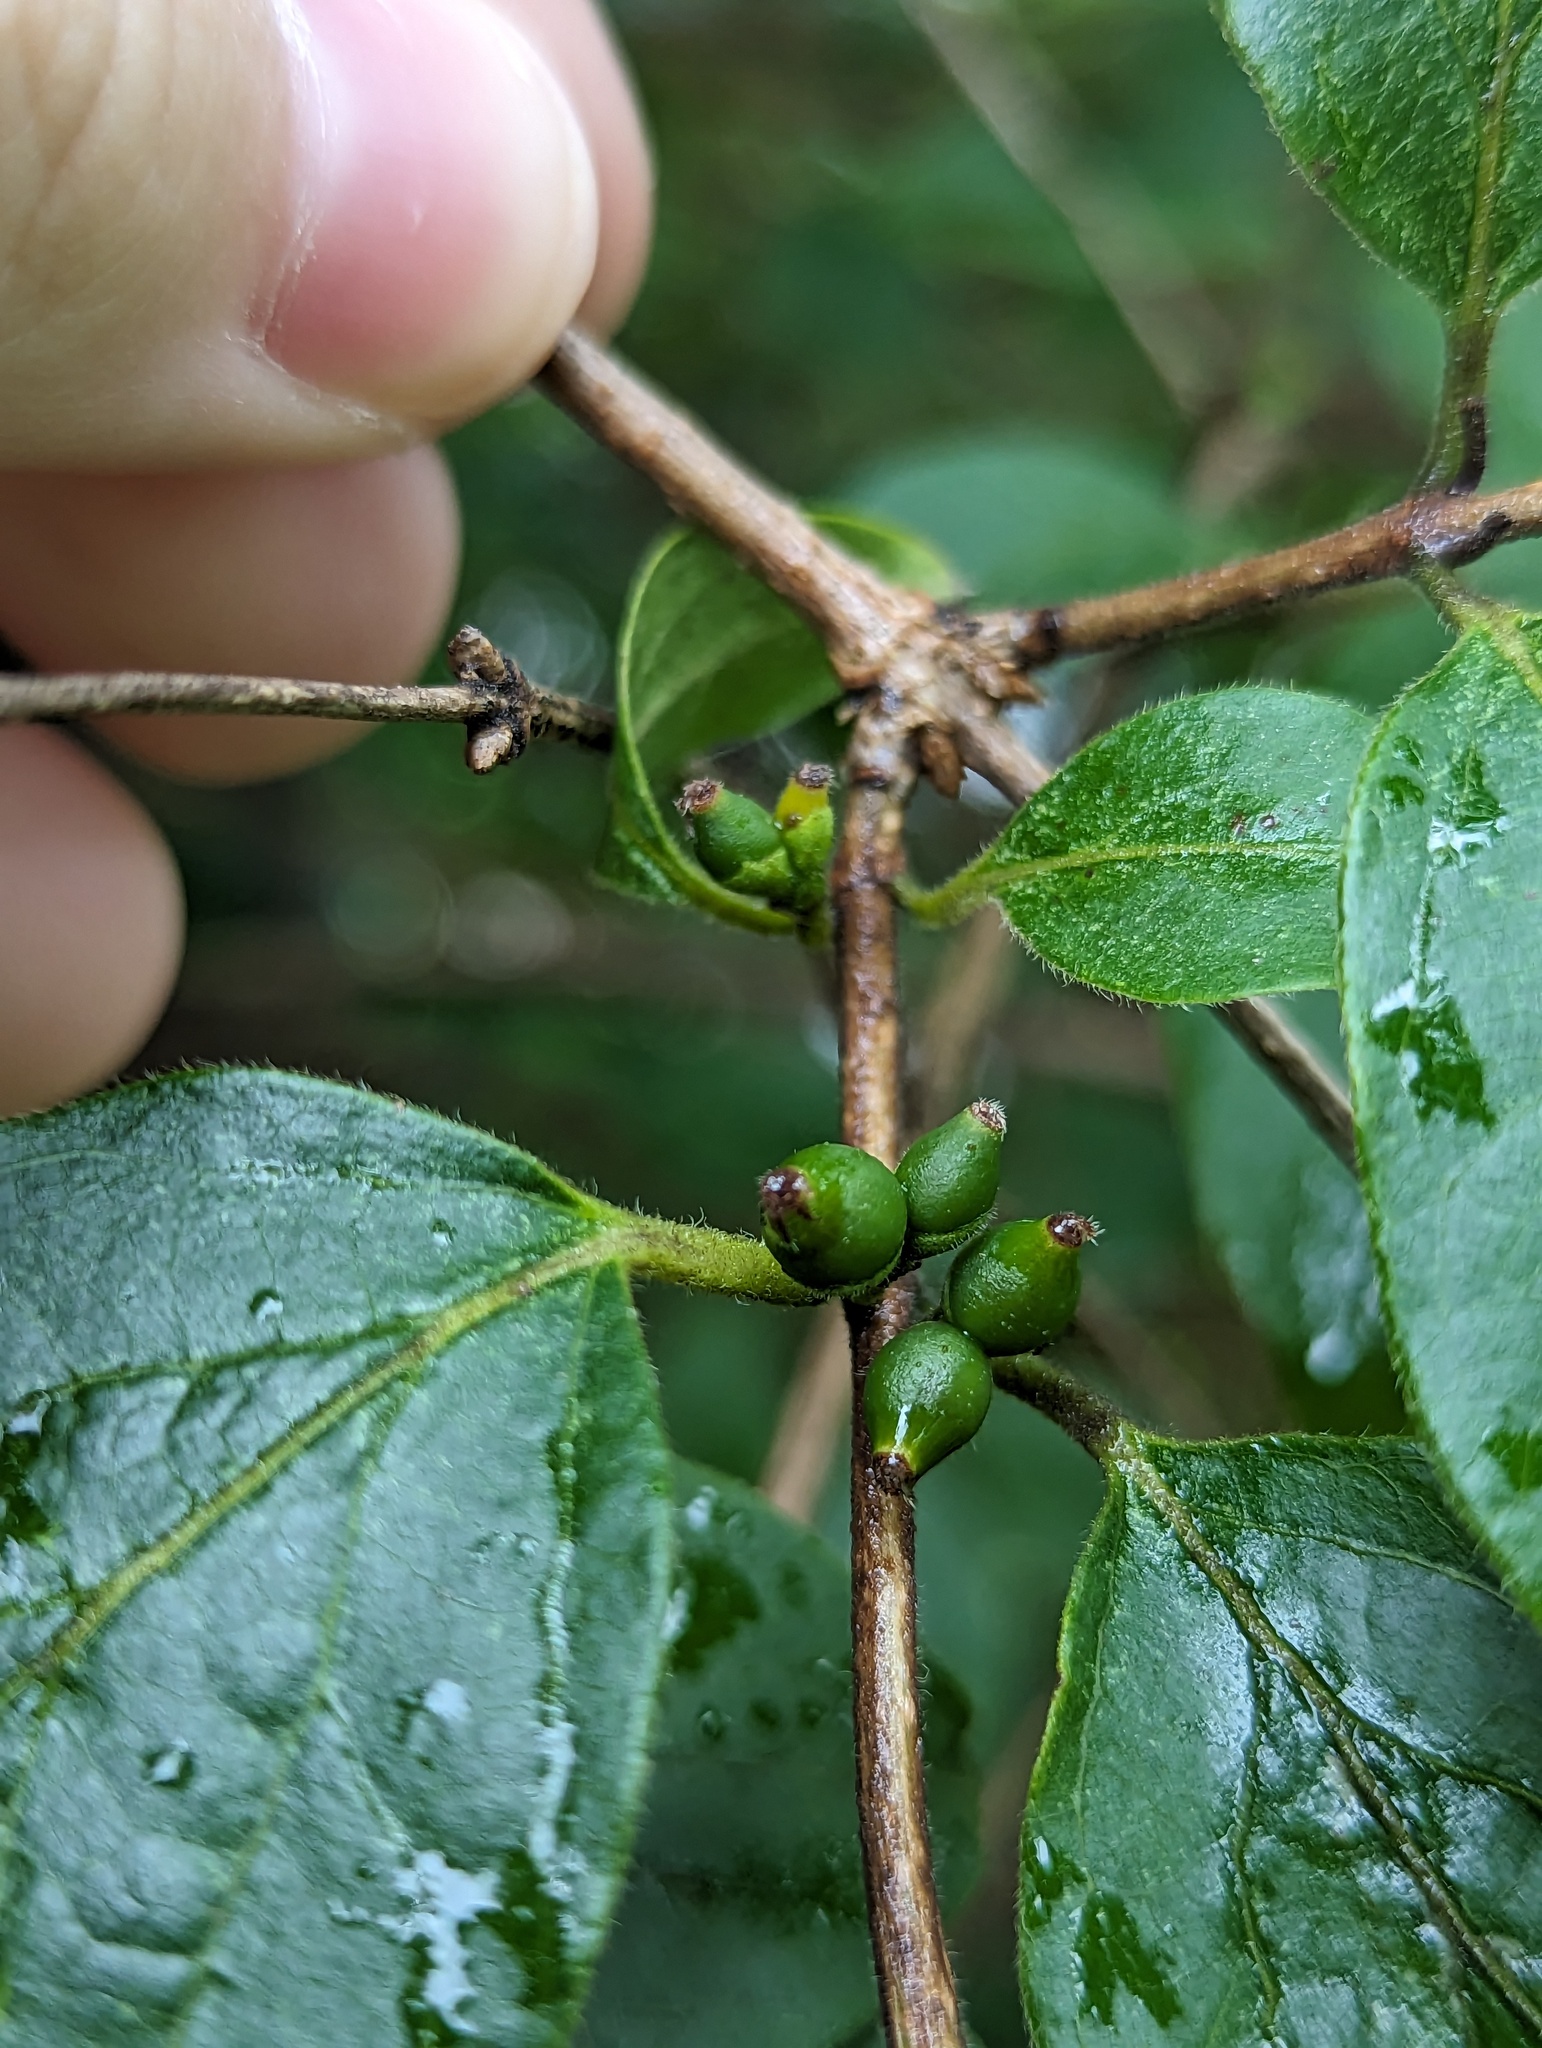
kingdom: Plantae
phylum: Tracheophyta
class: Magnoliopsida
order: Dipsacales
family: Caprifoliaceae
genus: Lonicera
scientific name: Lonicera maackii
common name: Amur honeysuckle
